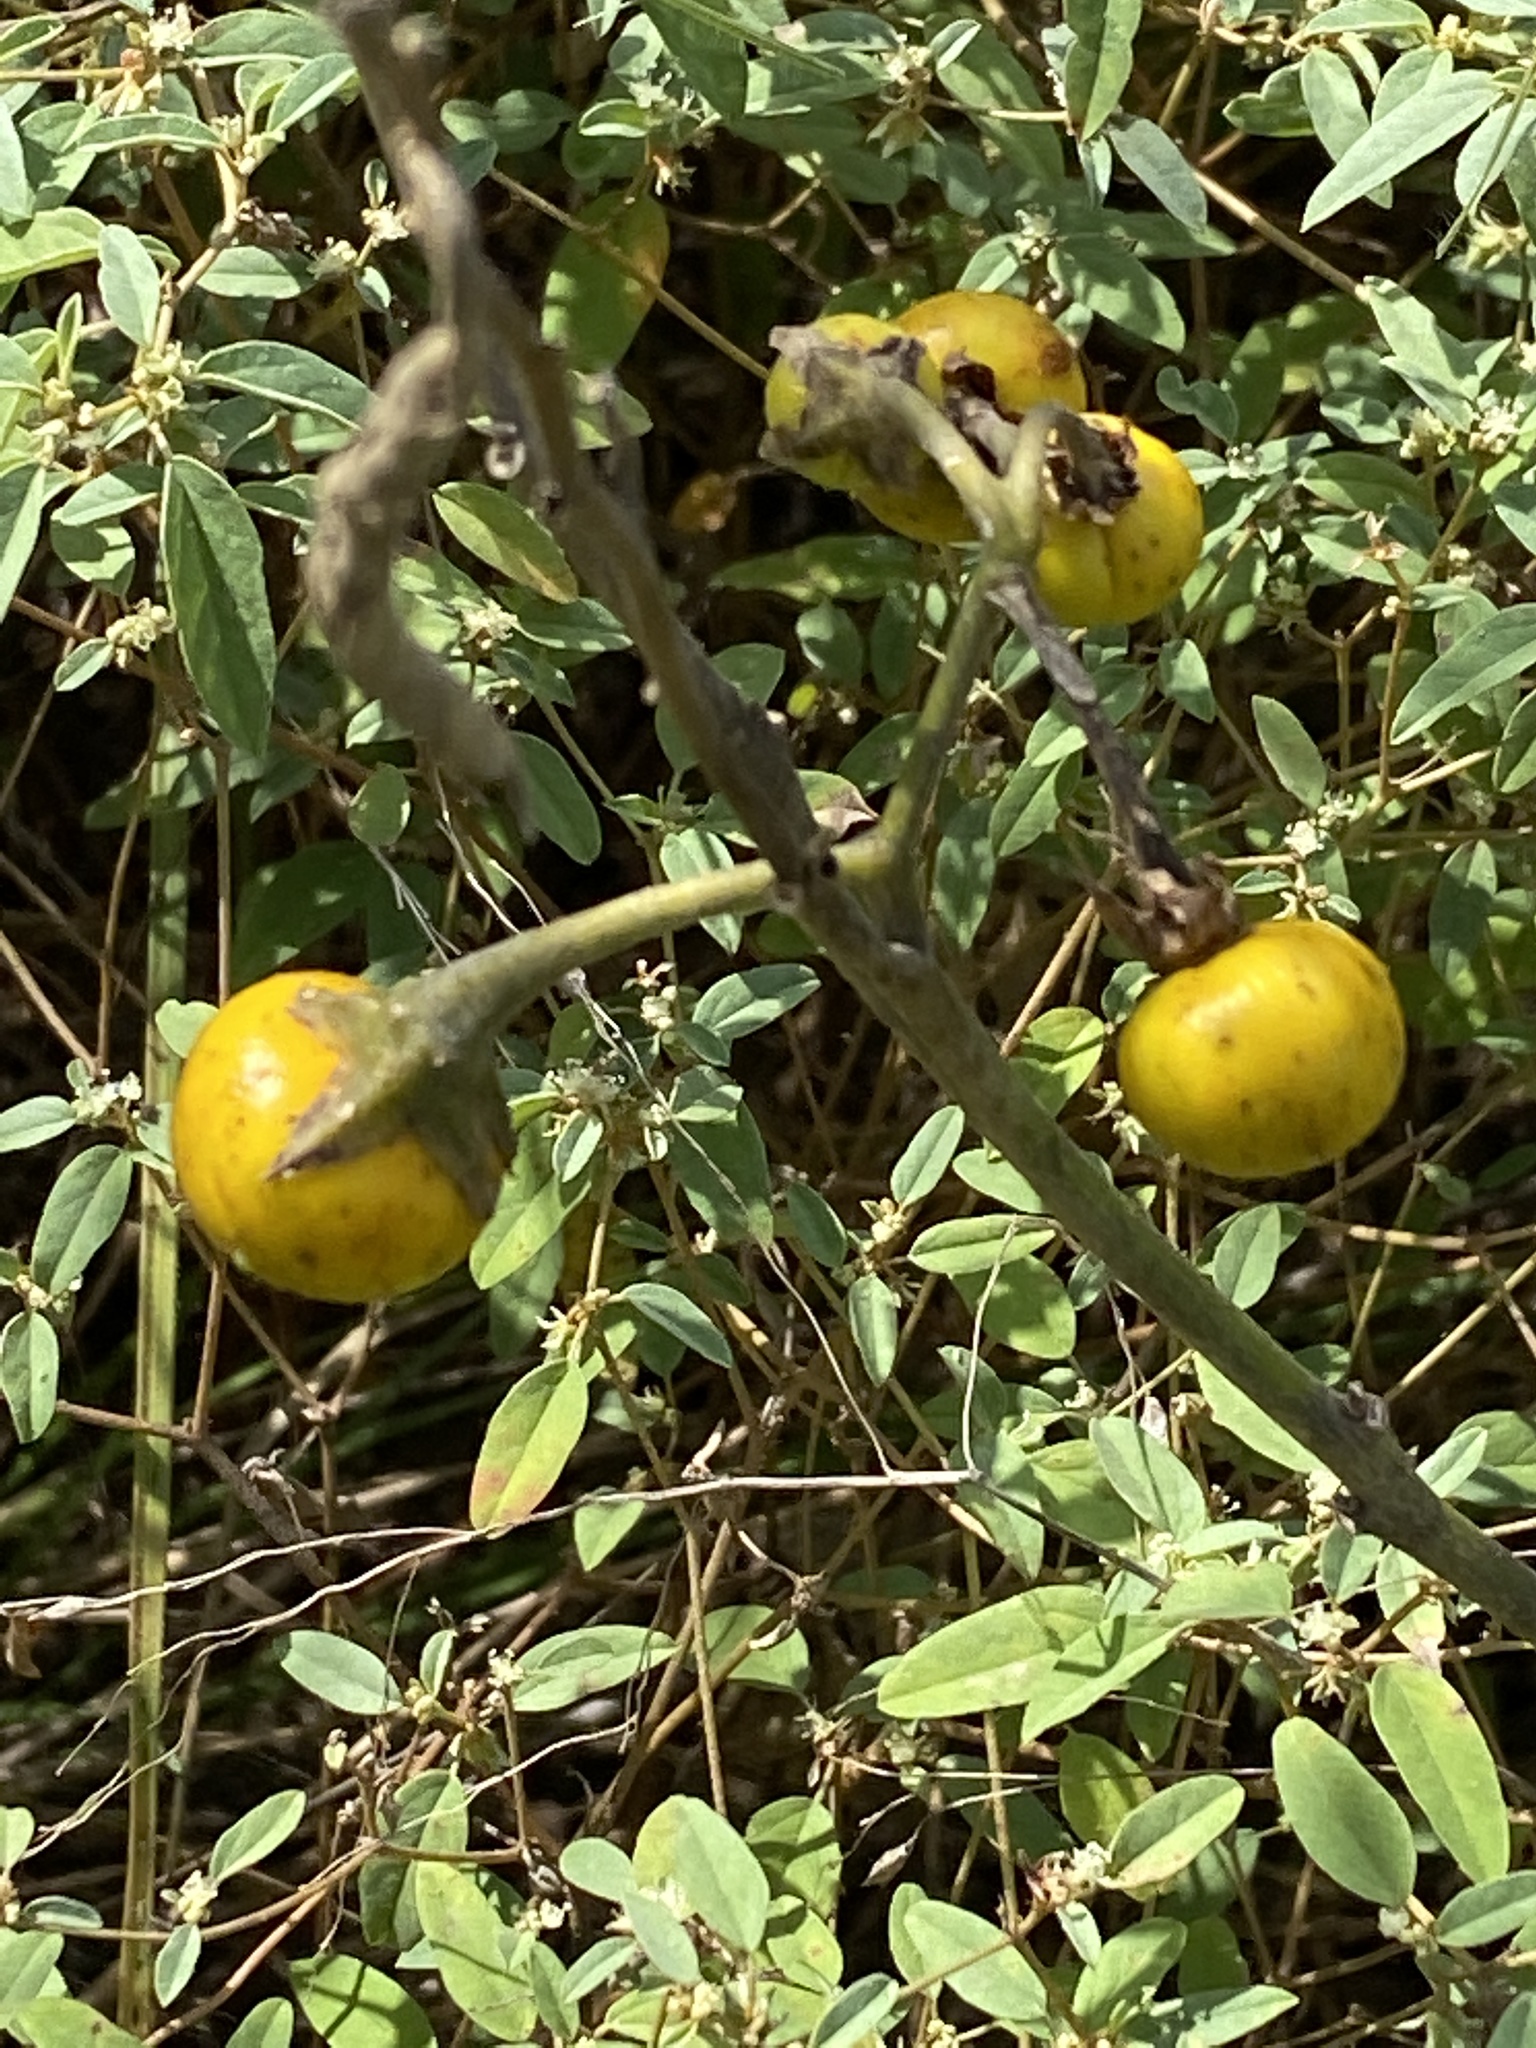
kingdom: Plantae
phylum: Tracheophyta
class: Magnoliopsida
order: Solanales
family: Solanaceae
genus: Solanum
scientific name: Solanum elaeagnifolium
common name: Silverleaf nightshade
